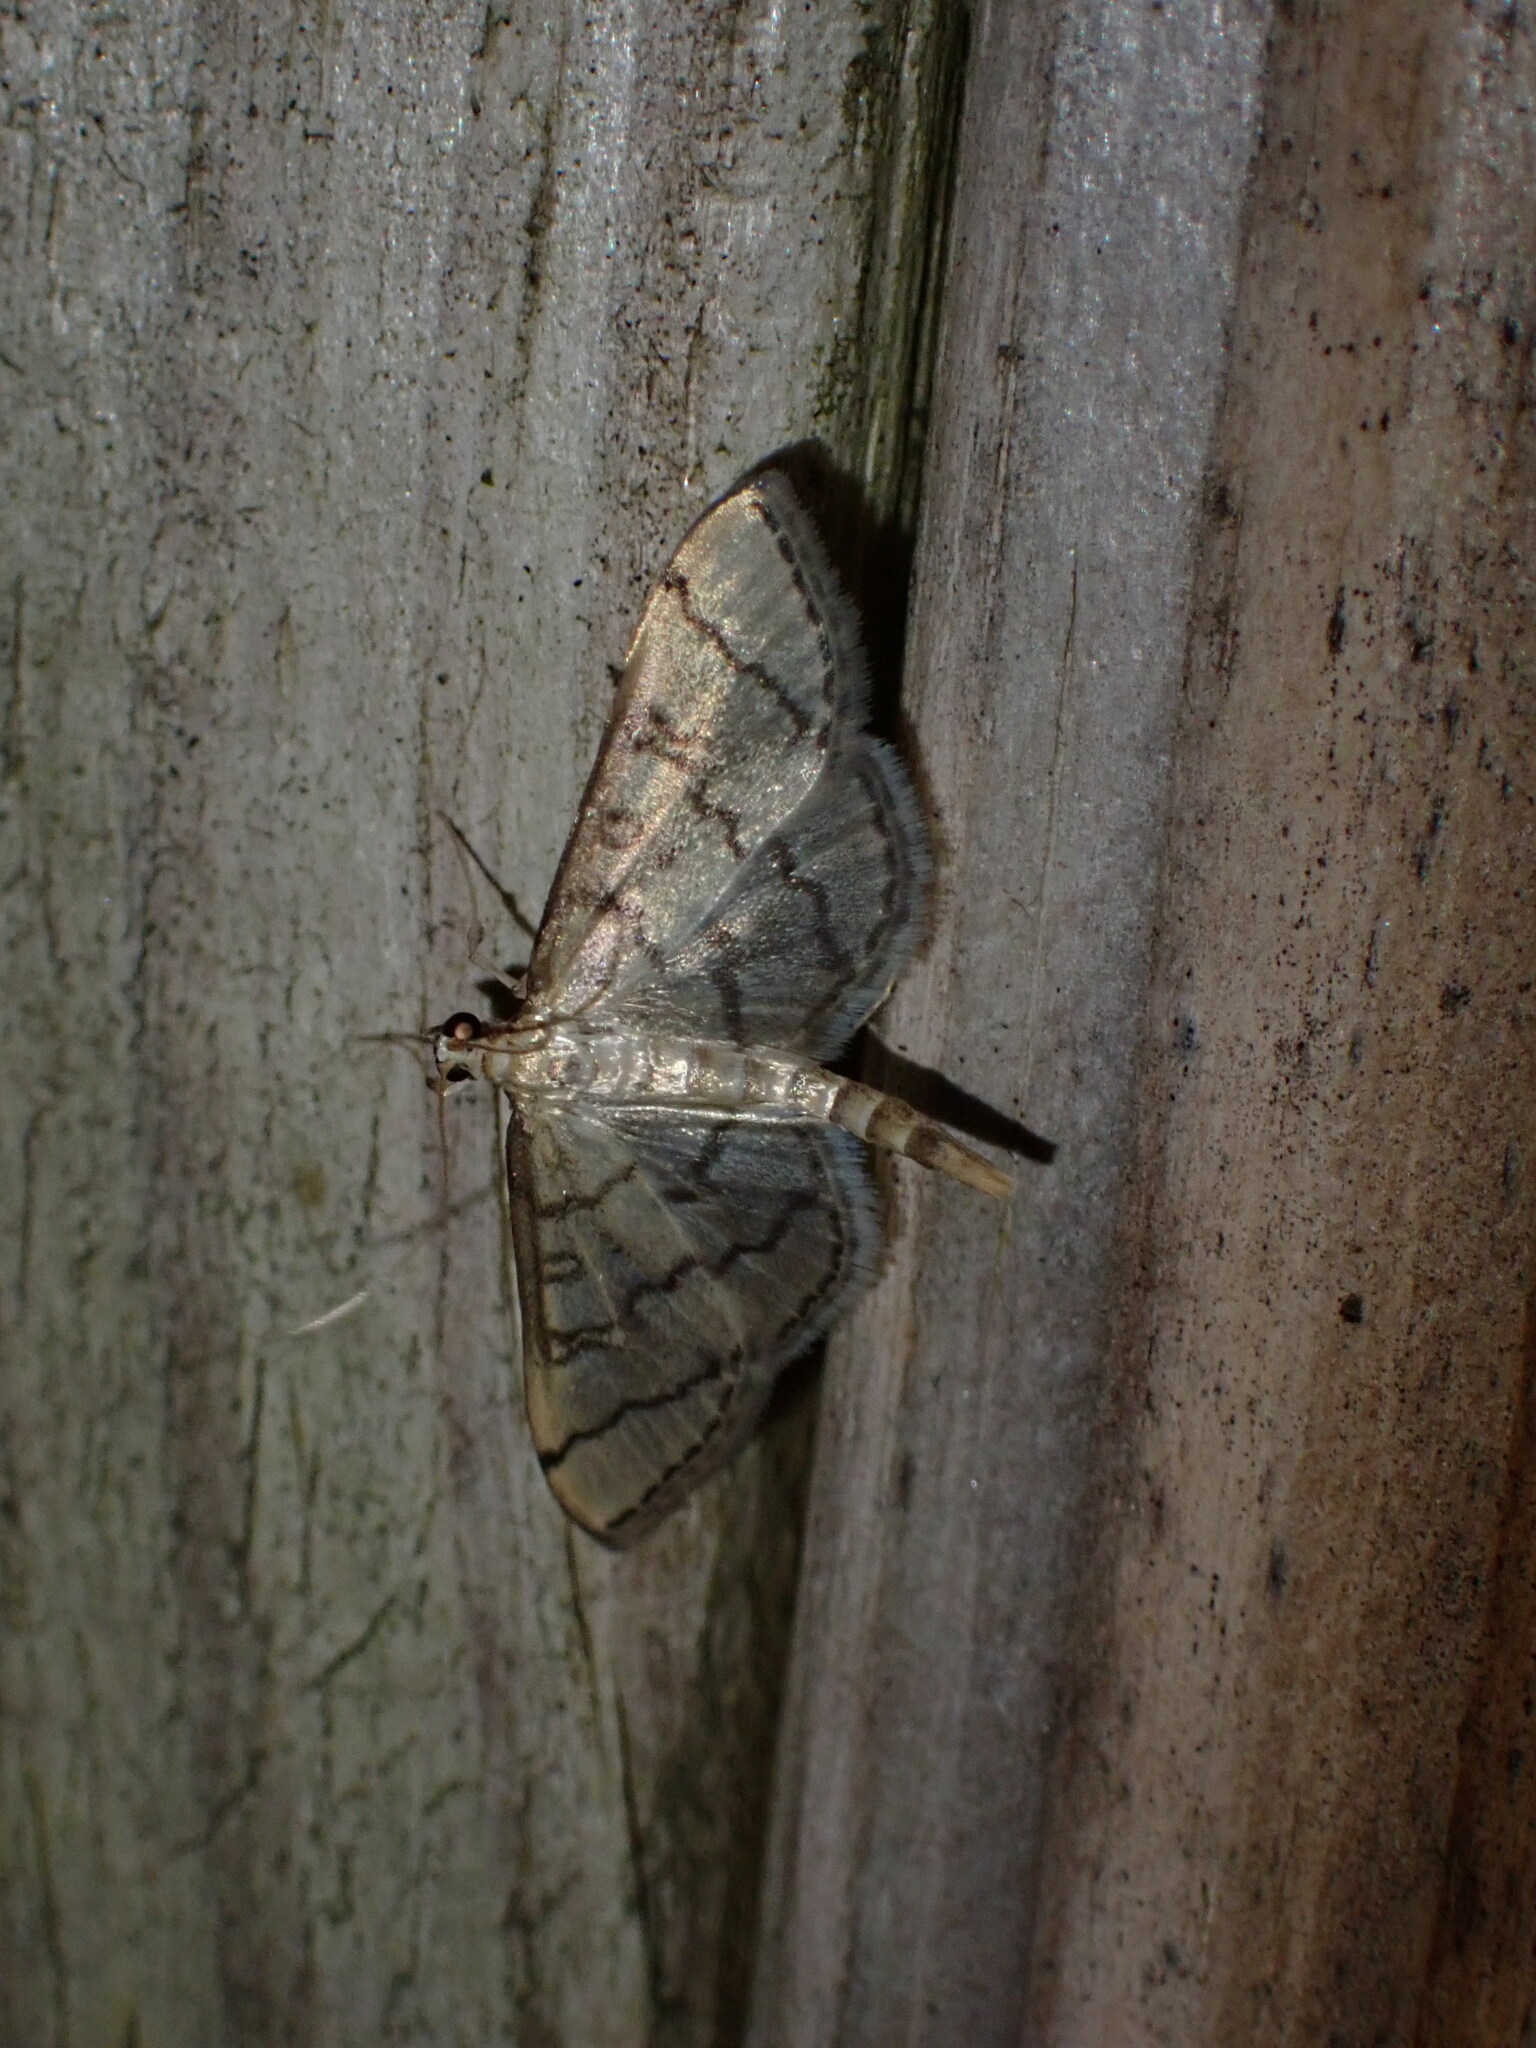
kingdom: Animalia
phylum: Arthropoda
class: Insecta
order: Lepidoptera
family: Crambidae
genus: Lamprosema
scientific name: Lamprosema Blepharomastix ranalis
